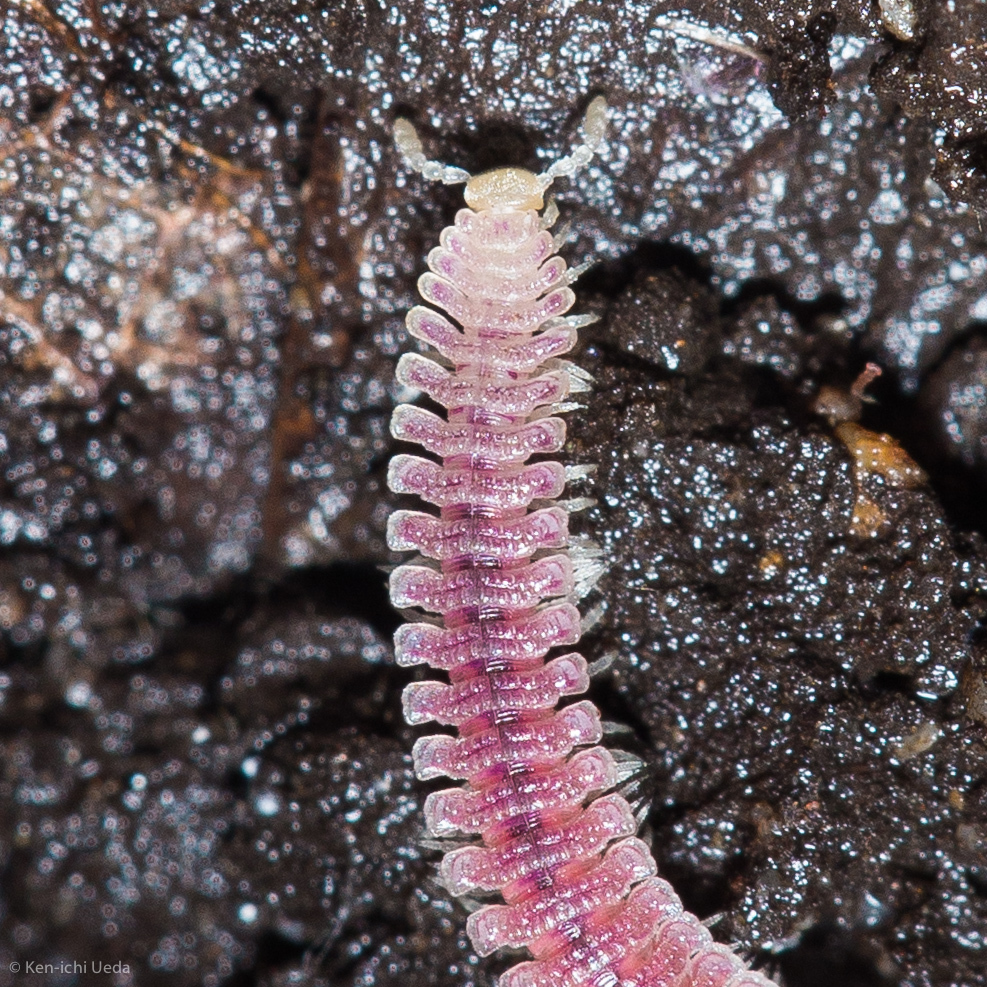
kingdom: Animalia
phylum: Arthropoda
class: Diplopoda
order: Platydesmida
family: Andrognathidae
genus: Gosodesmus
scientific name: Gosodesmus claremontus
